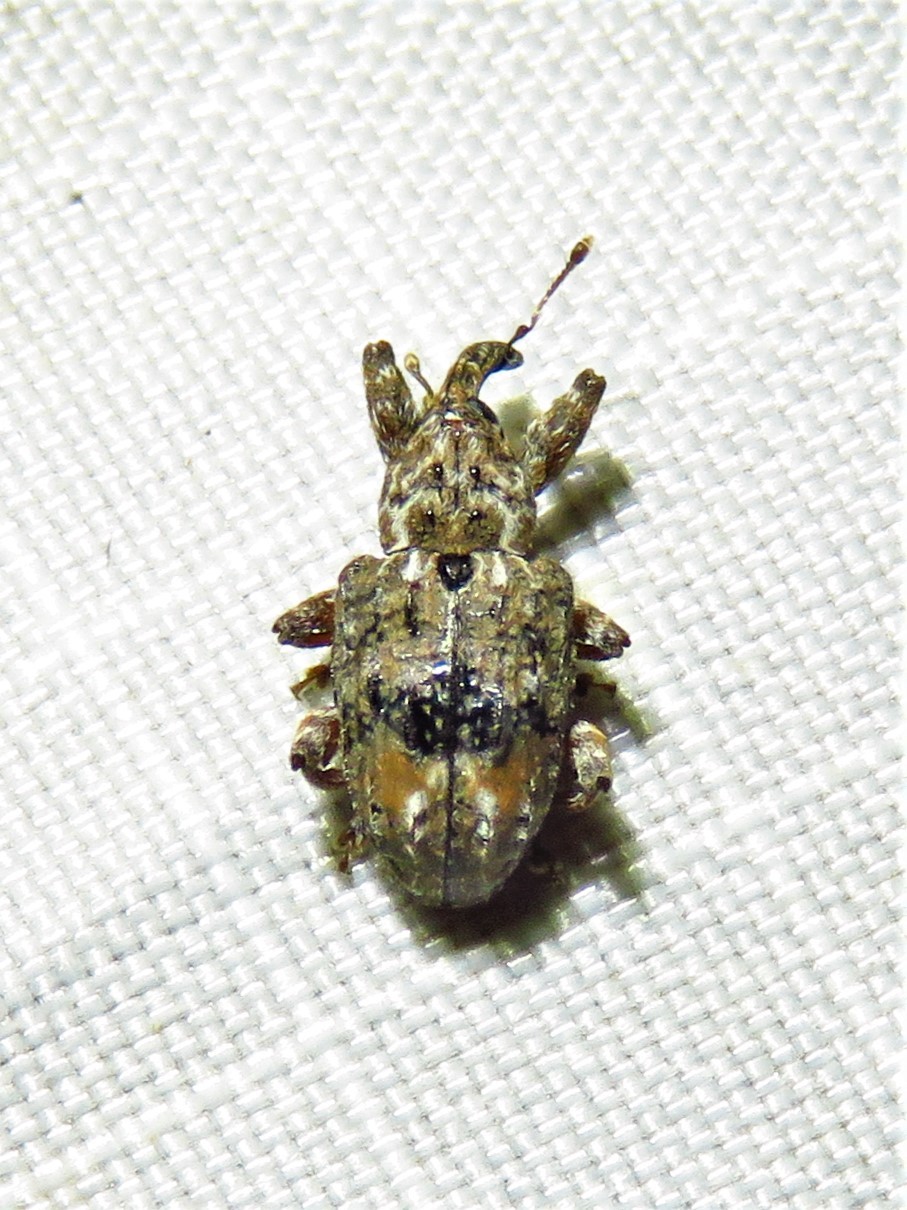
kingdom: Animalia
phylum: Arthropoda
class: Insecta
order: Coleoptera
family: Curculionidae
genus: Conotrachelus
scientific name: Conotrachelus nenuphar
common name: Plum curculio
